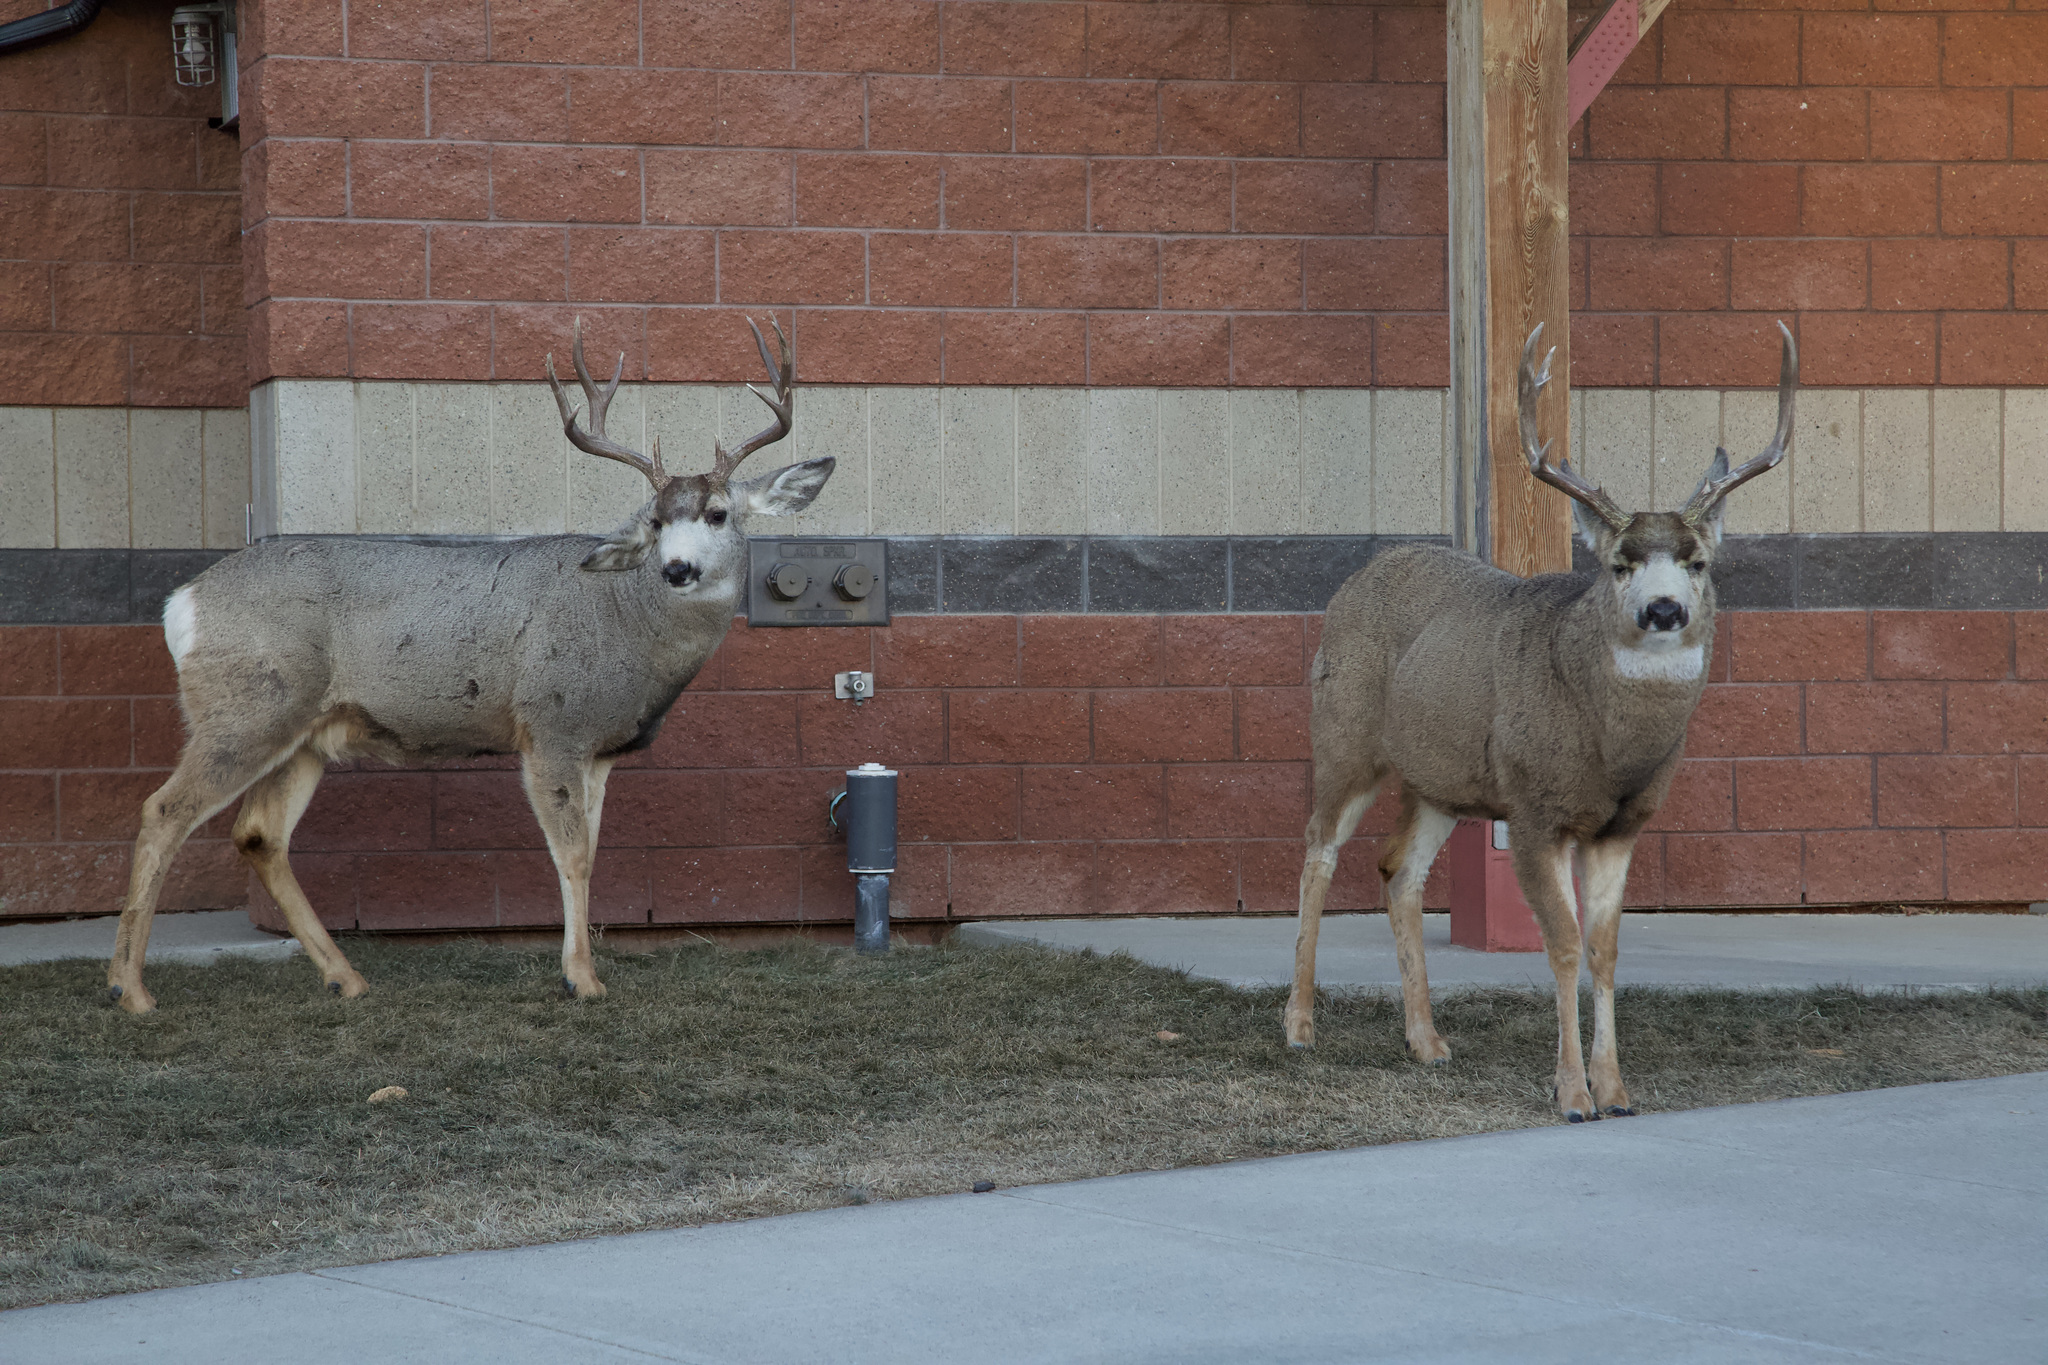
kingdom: Animalia
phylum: Chordata
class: Mammalia
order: Artiodactyla
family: Cervidae
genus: Odocoileus
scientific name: Odocoileus hemionus
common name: Mule deer
